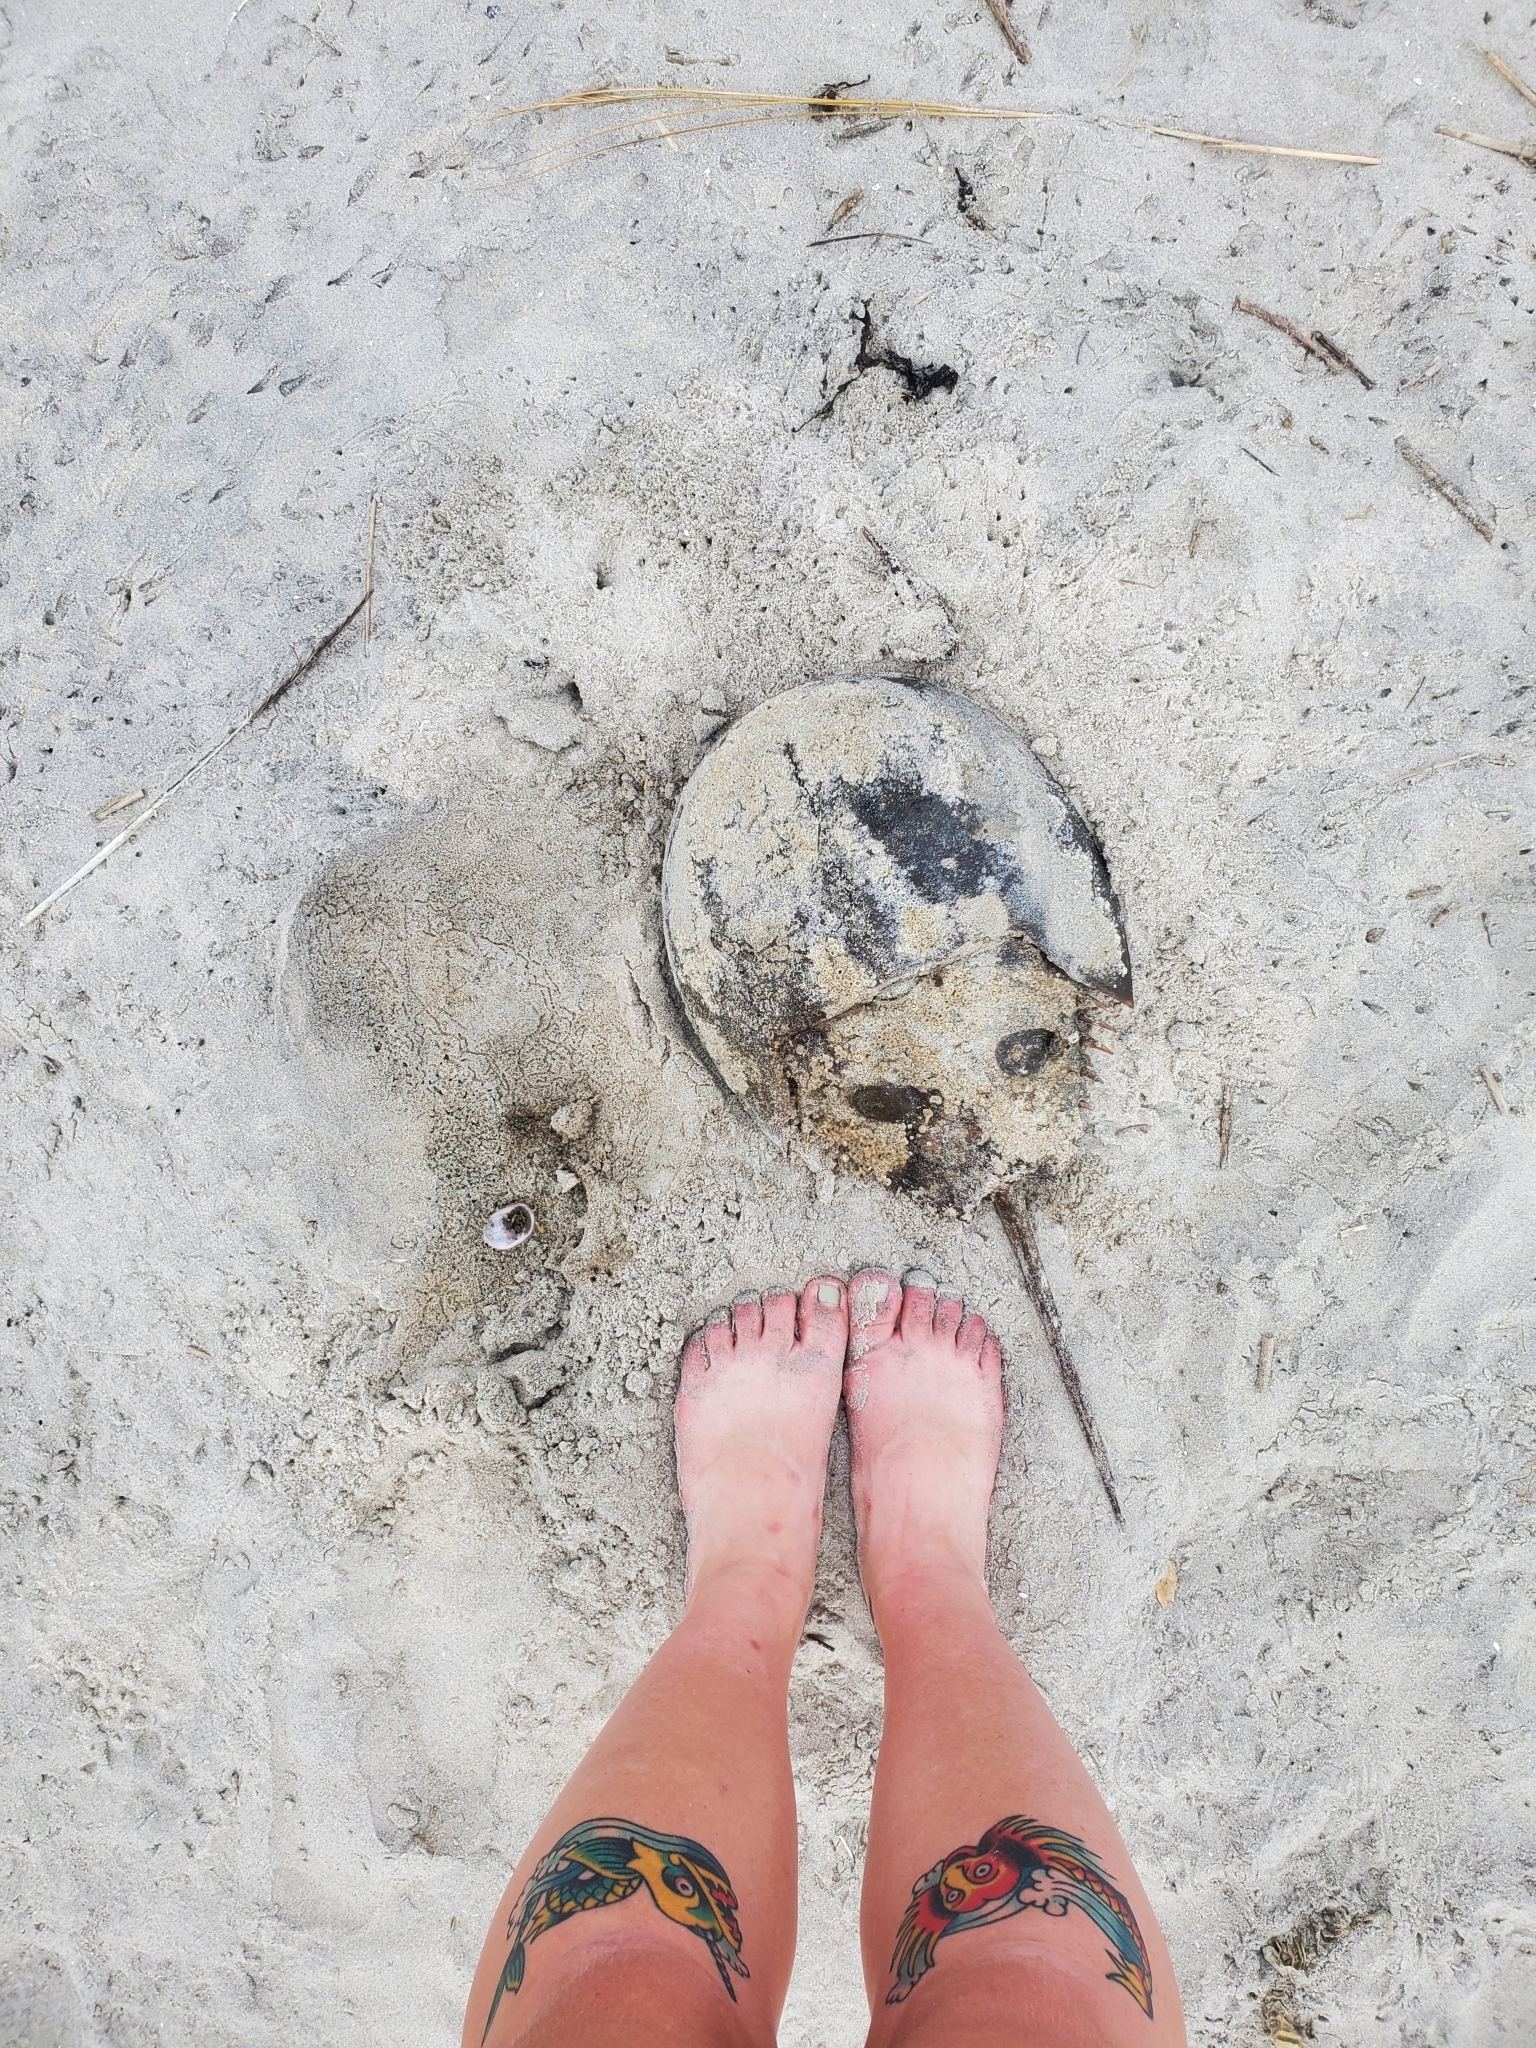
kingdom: Animalia
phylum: Arthropoda
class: Merostomata
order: Xiphosurida
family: Limulidae
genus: Limulus
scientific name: Limulus polyphemus
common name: Horseshoe crab
